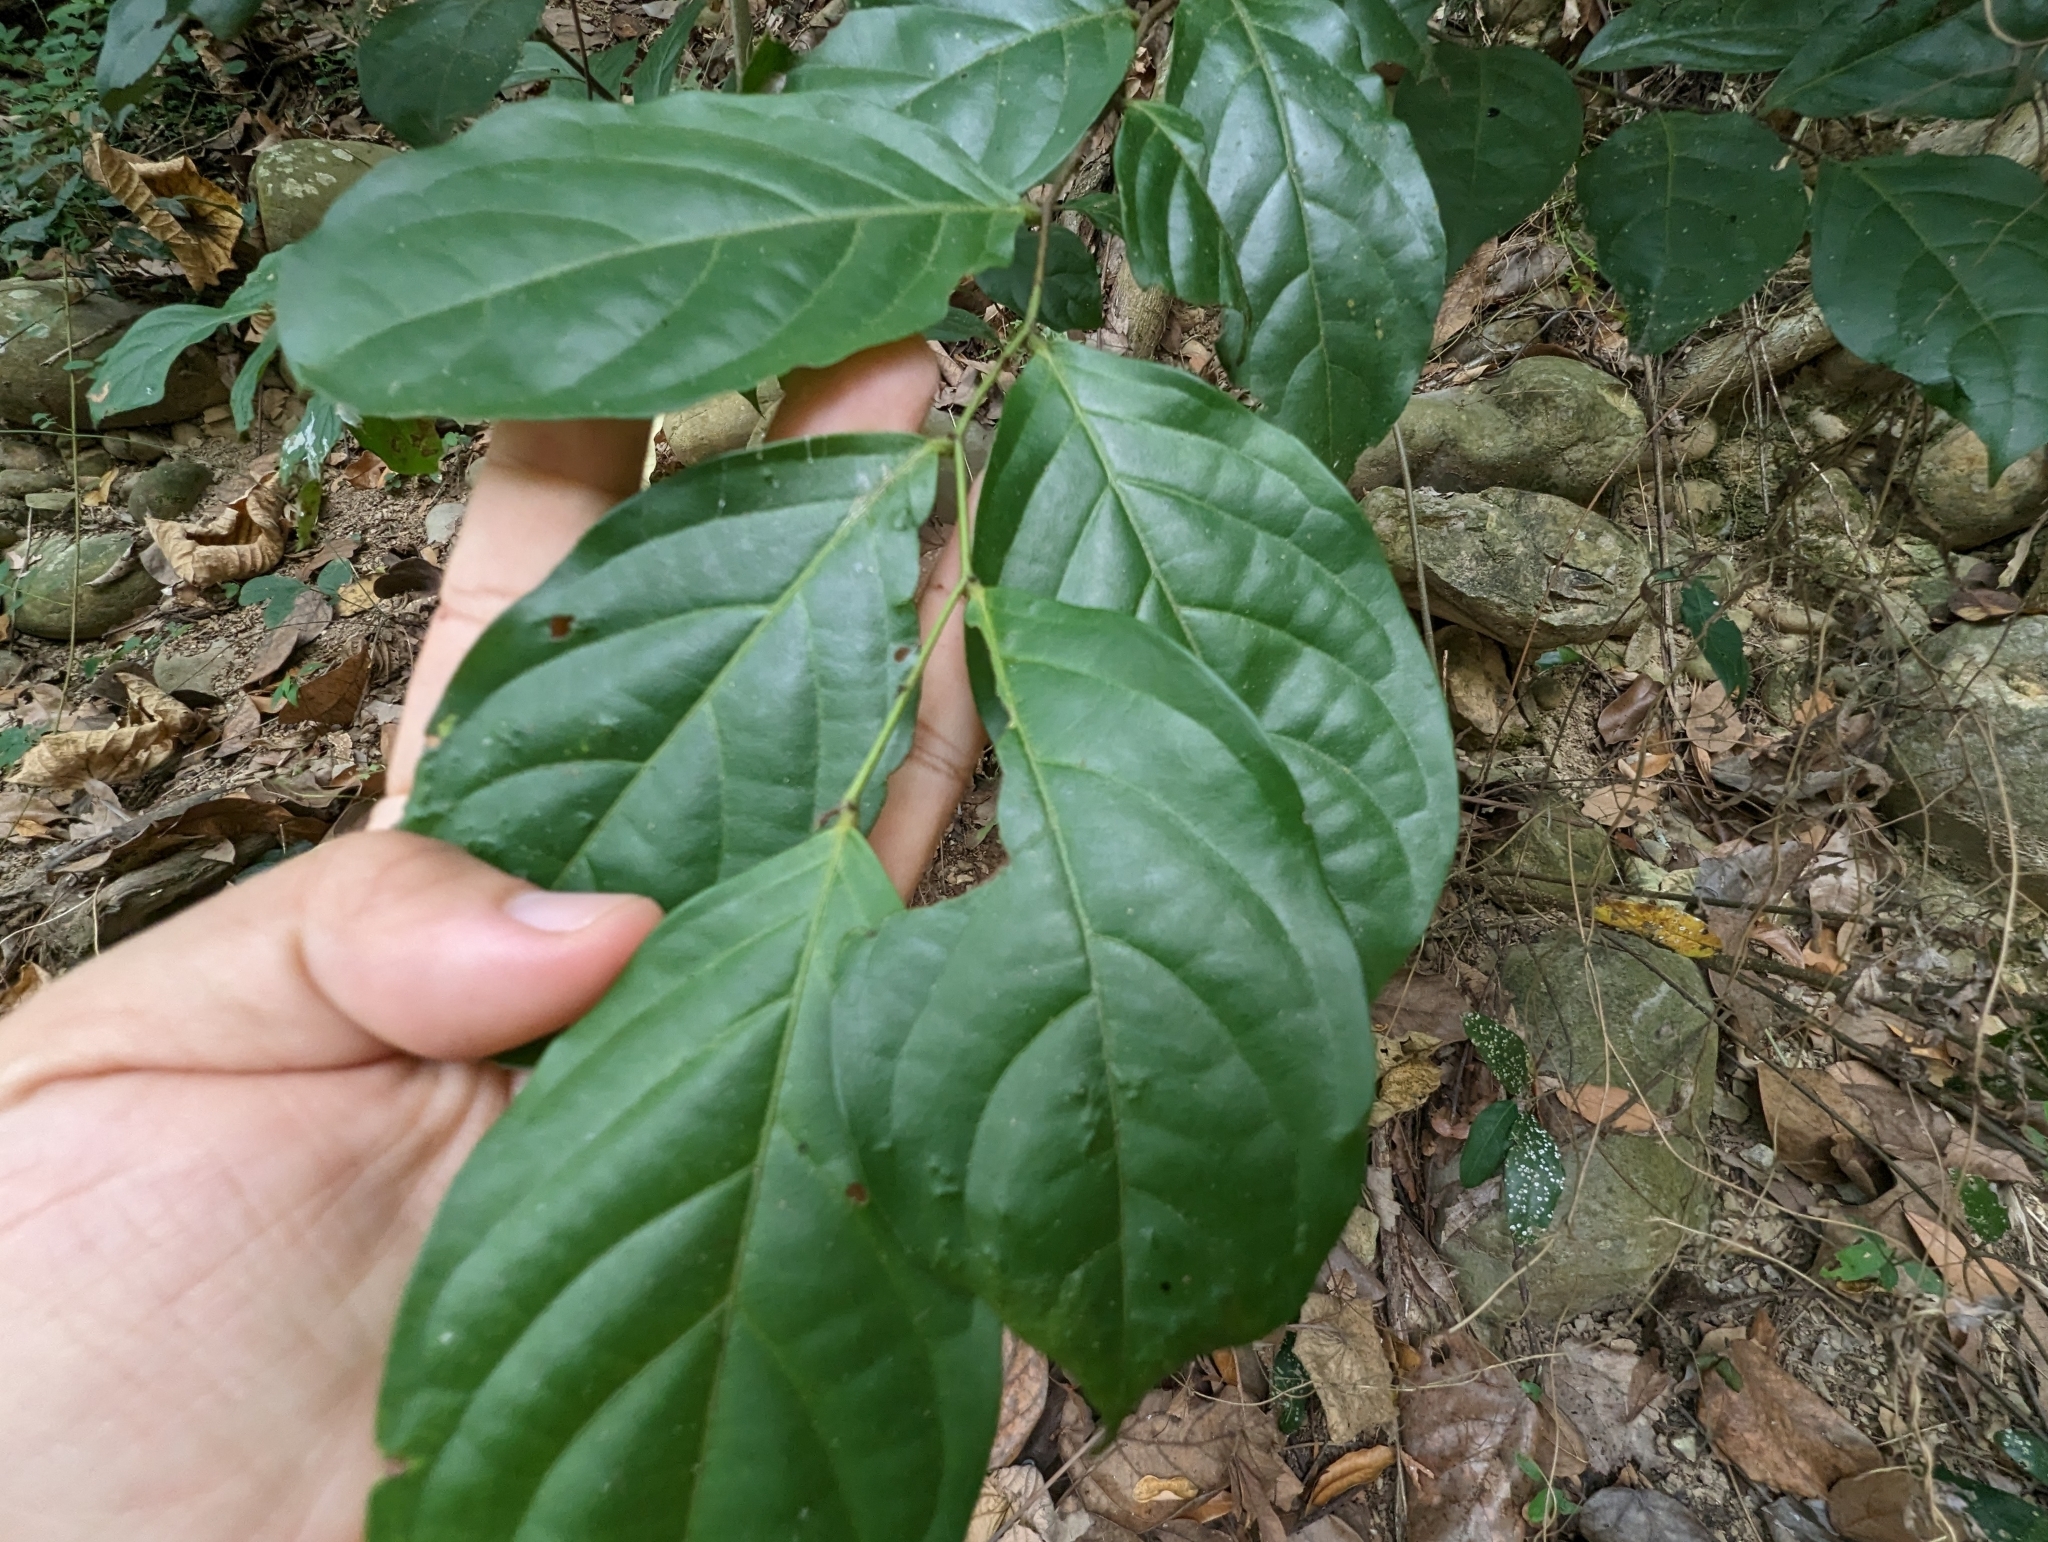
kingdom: Plantae
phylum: Tracheophyta
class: Magnoliopsida
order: Malpighiales
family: Phyllanthaceae
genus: Glochidion
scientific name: Glochidion zeylanicum
